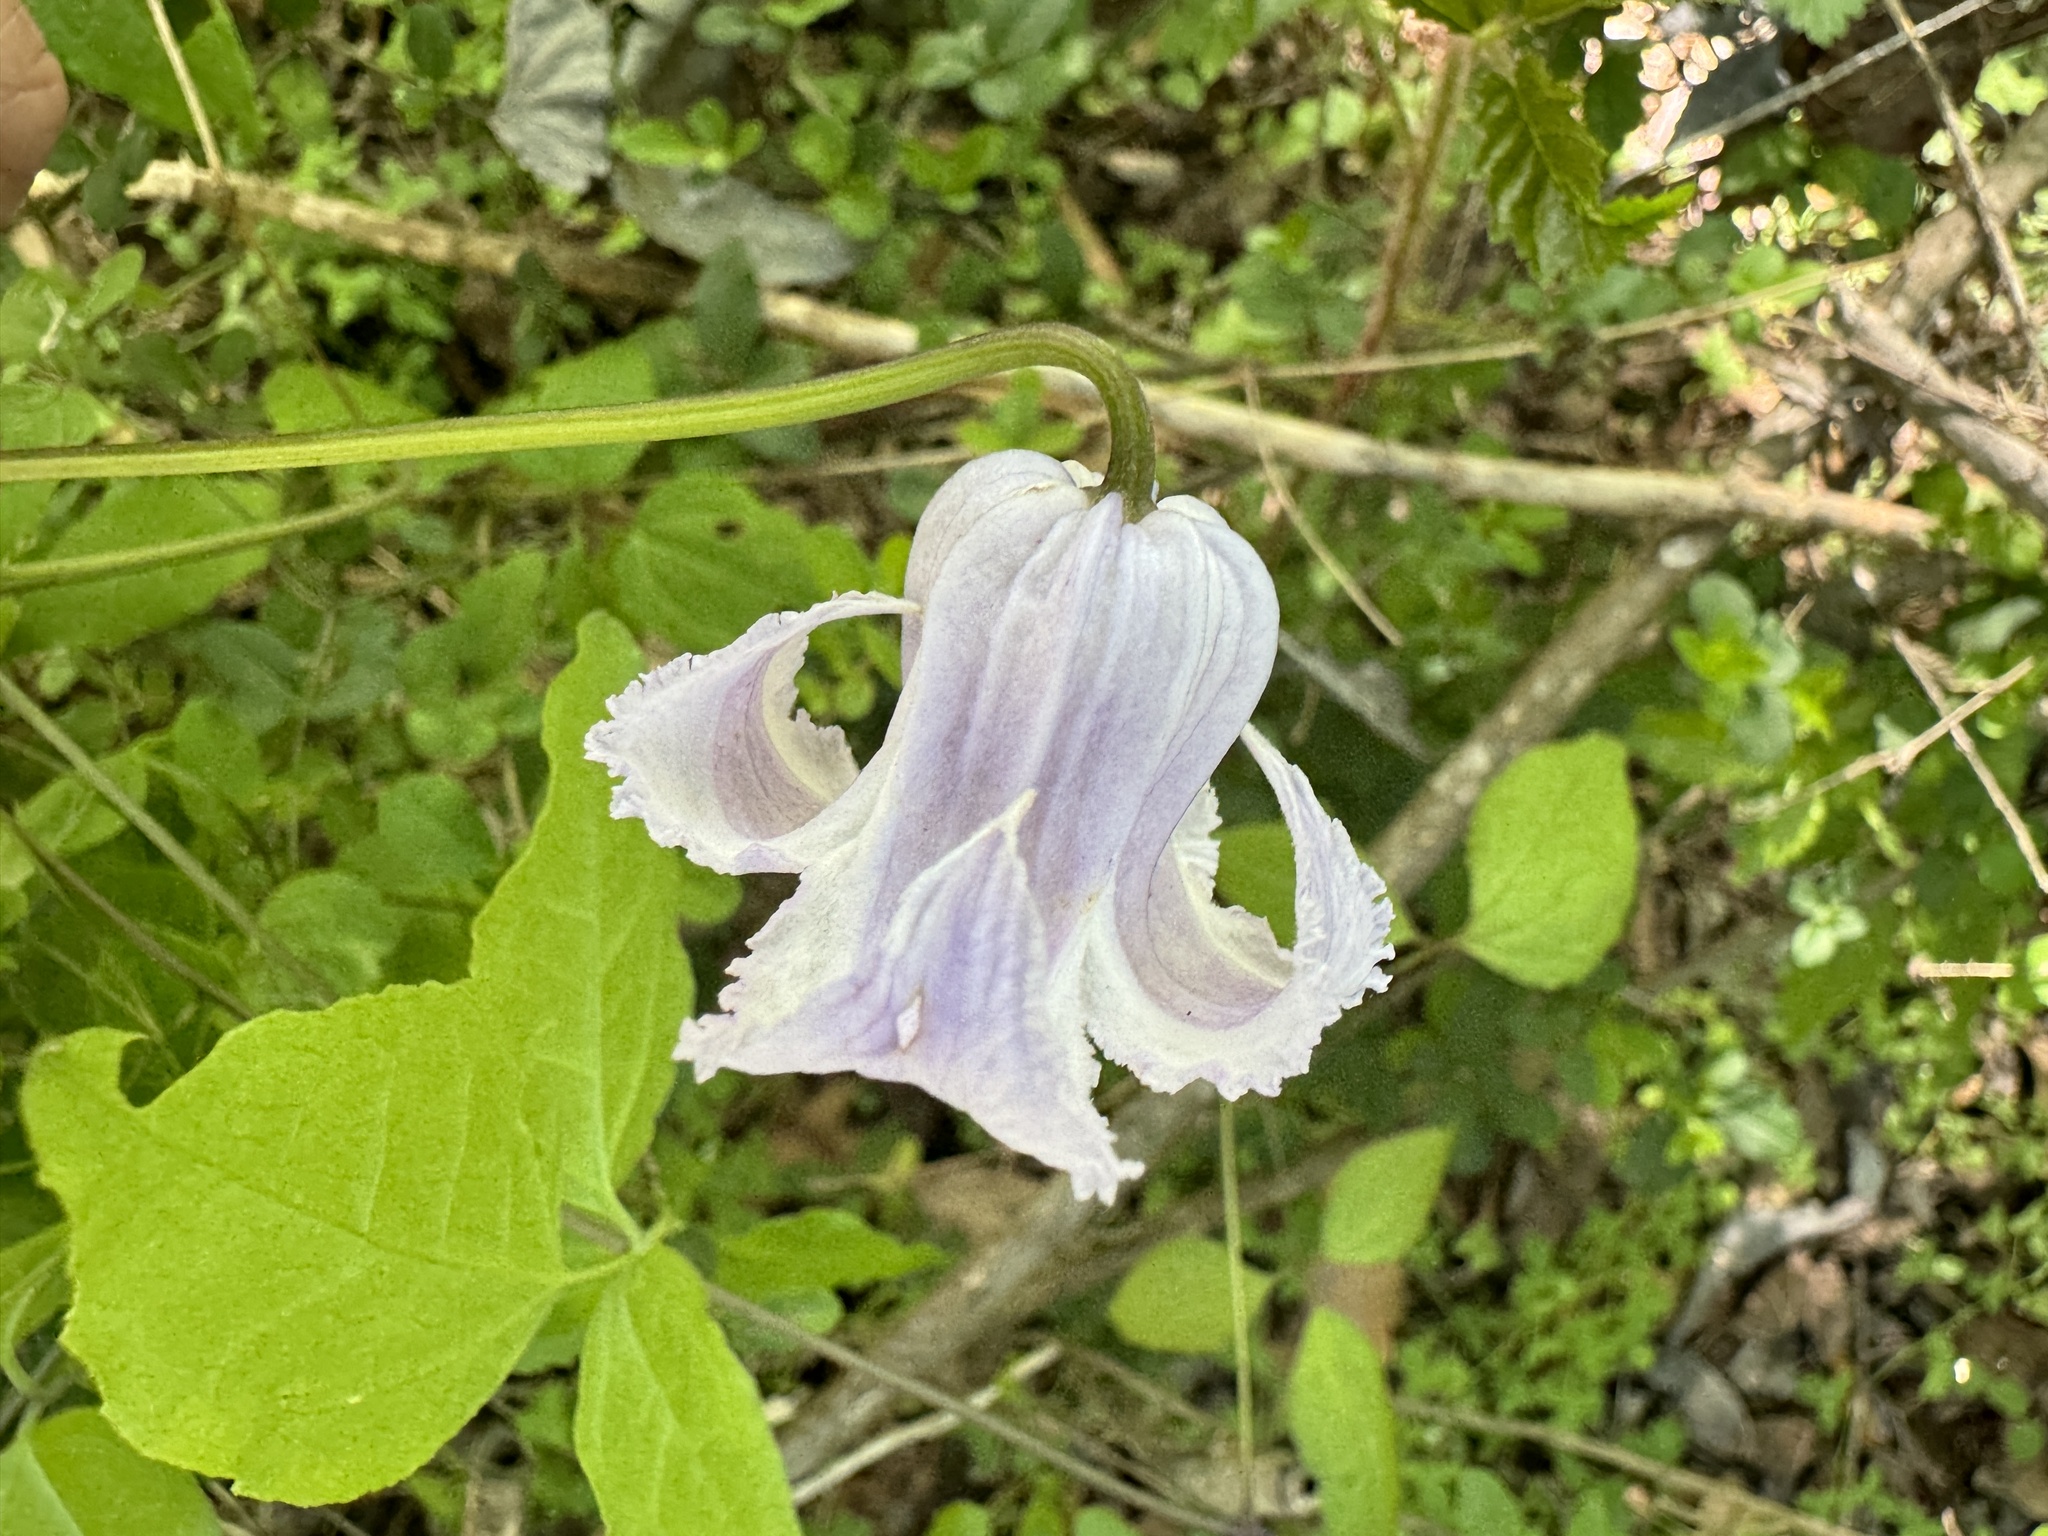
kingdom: Plantae
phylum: Tracheophyta
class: Magnoliopsida
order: Ranunculales
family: Ranunculaceae
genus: Clematis
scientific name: Clematis crispa
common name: Curly clematis
